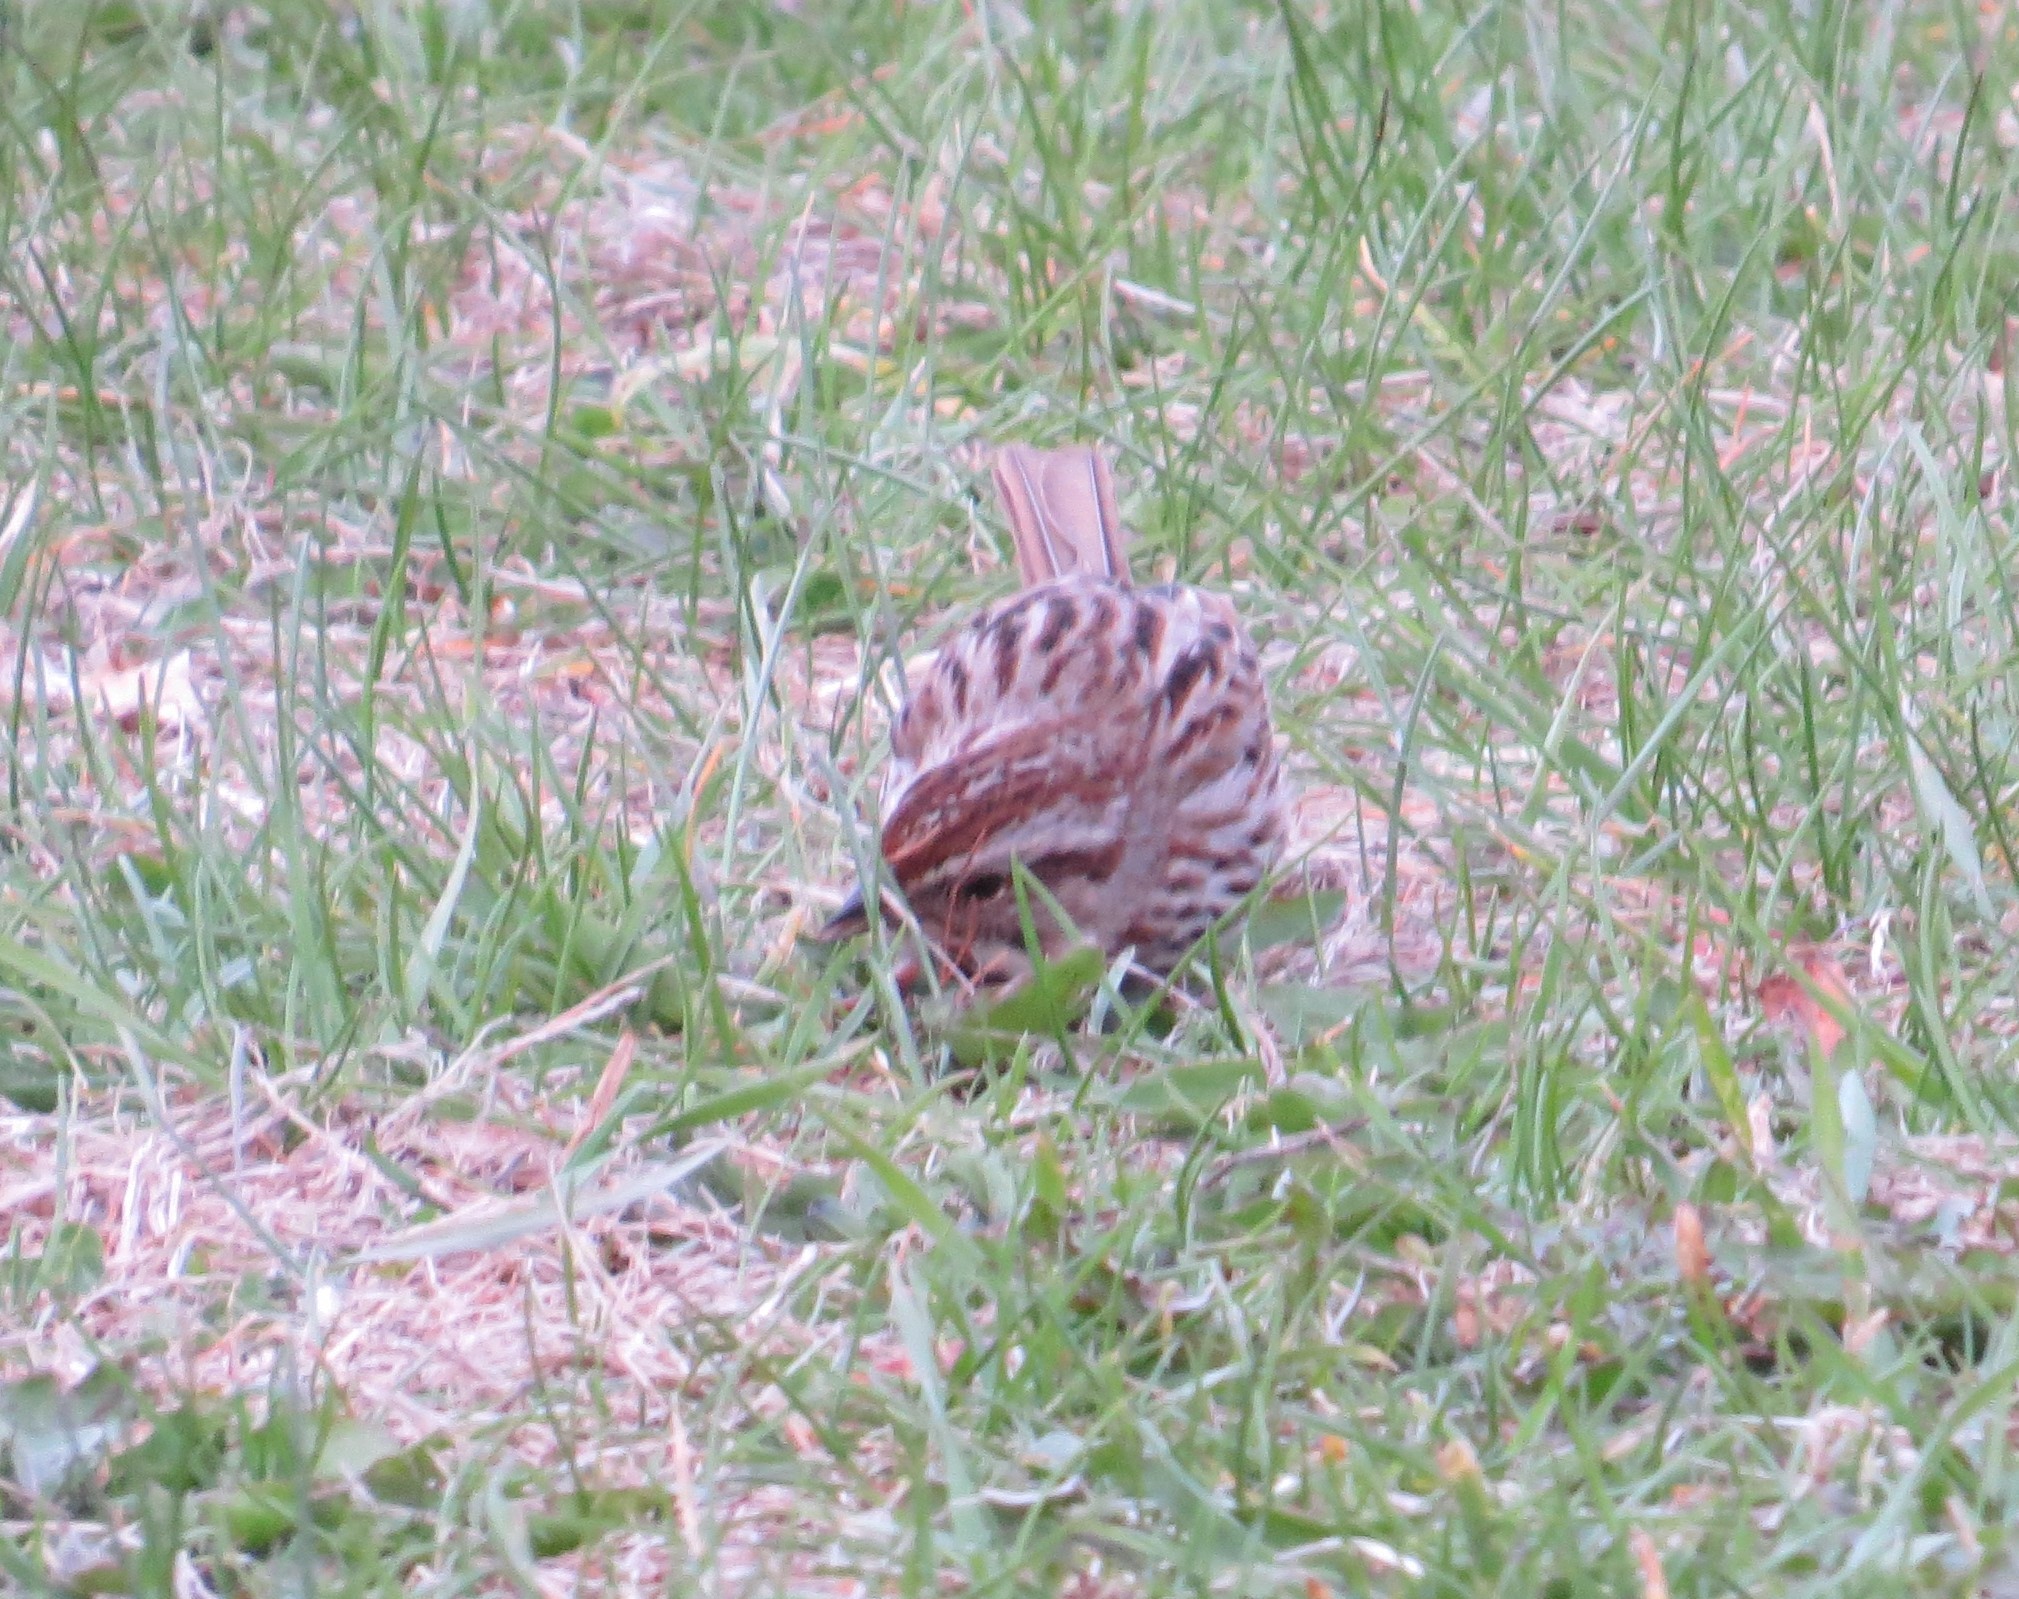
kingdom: Animalia
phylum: Chordata
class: Aves
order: Passeriformes
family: Passerellidae
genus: Melospiza
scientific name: Melospiza melodia
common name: Song sparrow
